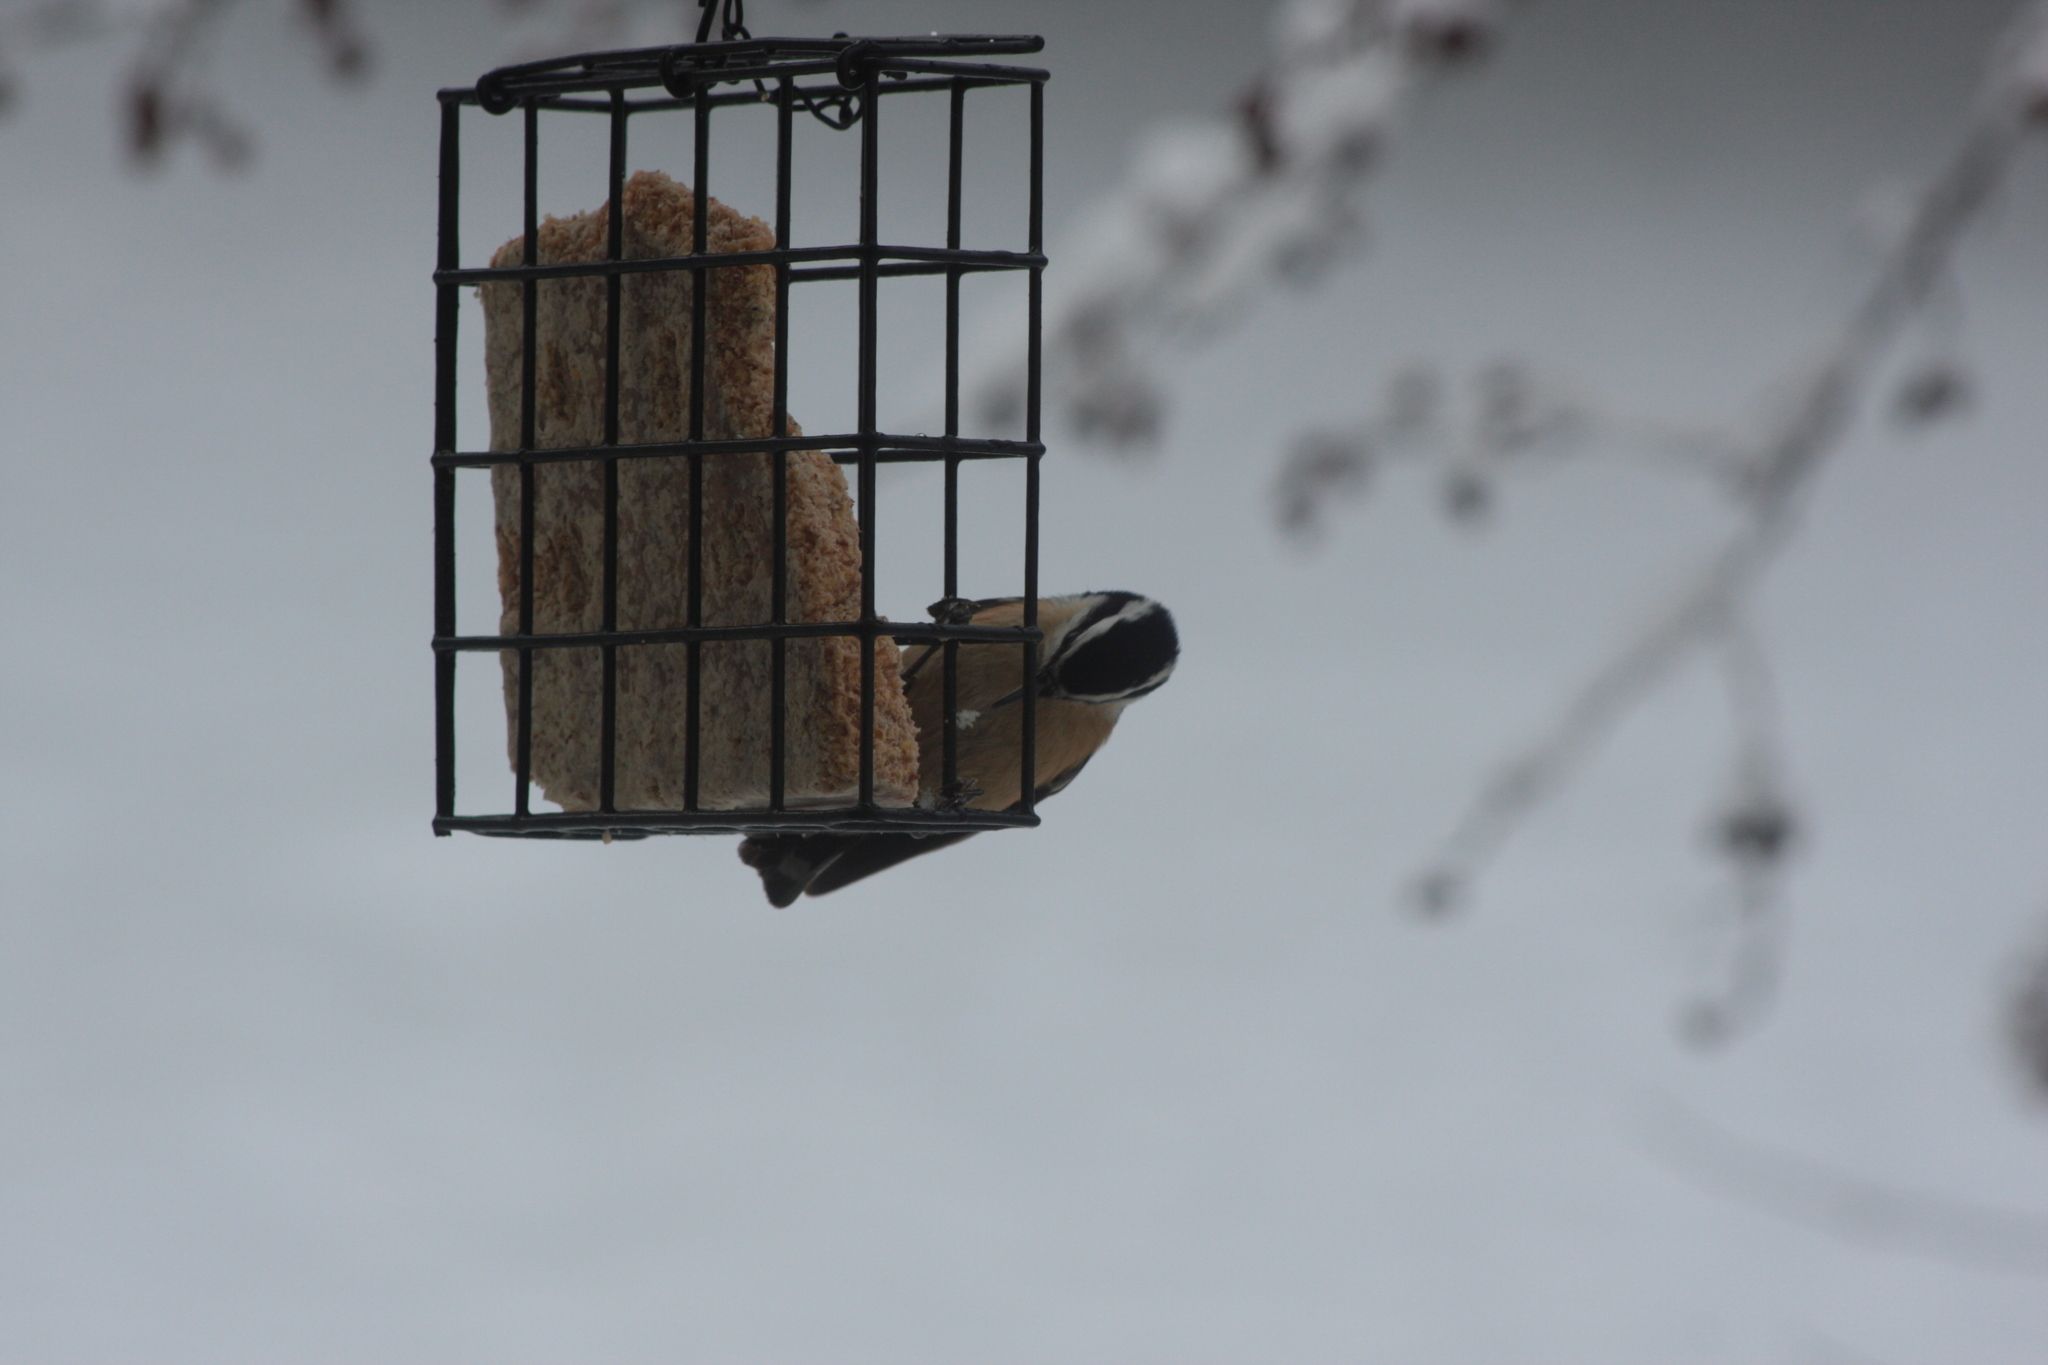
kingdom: Animalia
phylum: Chordata
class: Aves
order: Passeriformes
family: Sittidae
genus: Sitta
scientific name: Sitta canadensis
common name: Red-breasted nuthatch
